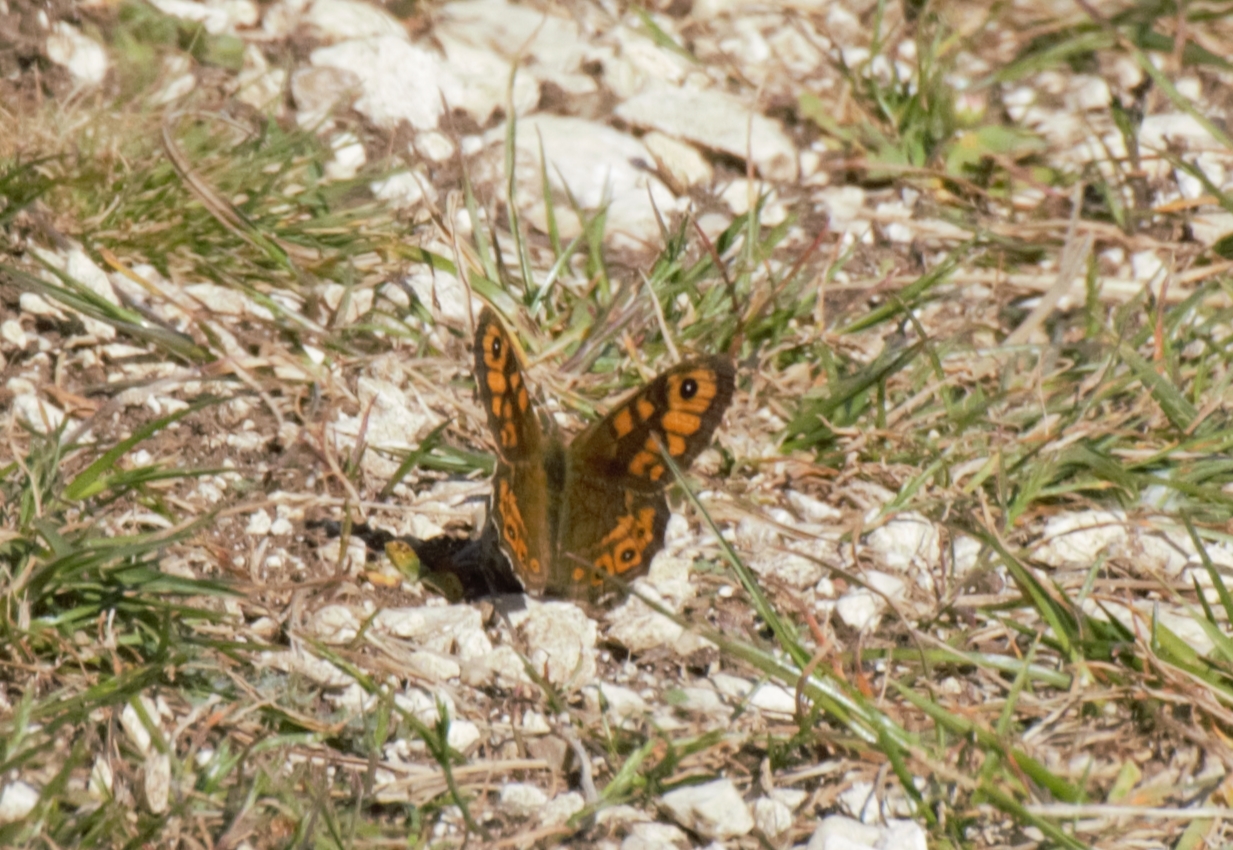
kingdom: Animalia
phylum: Arthropoda
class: Insecta
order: Lepidoptera
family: Nymphalidae
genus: Pararge
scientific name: Pararge Lasiommata megera
